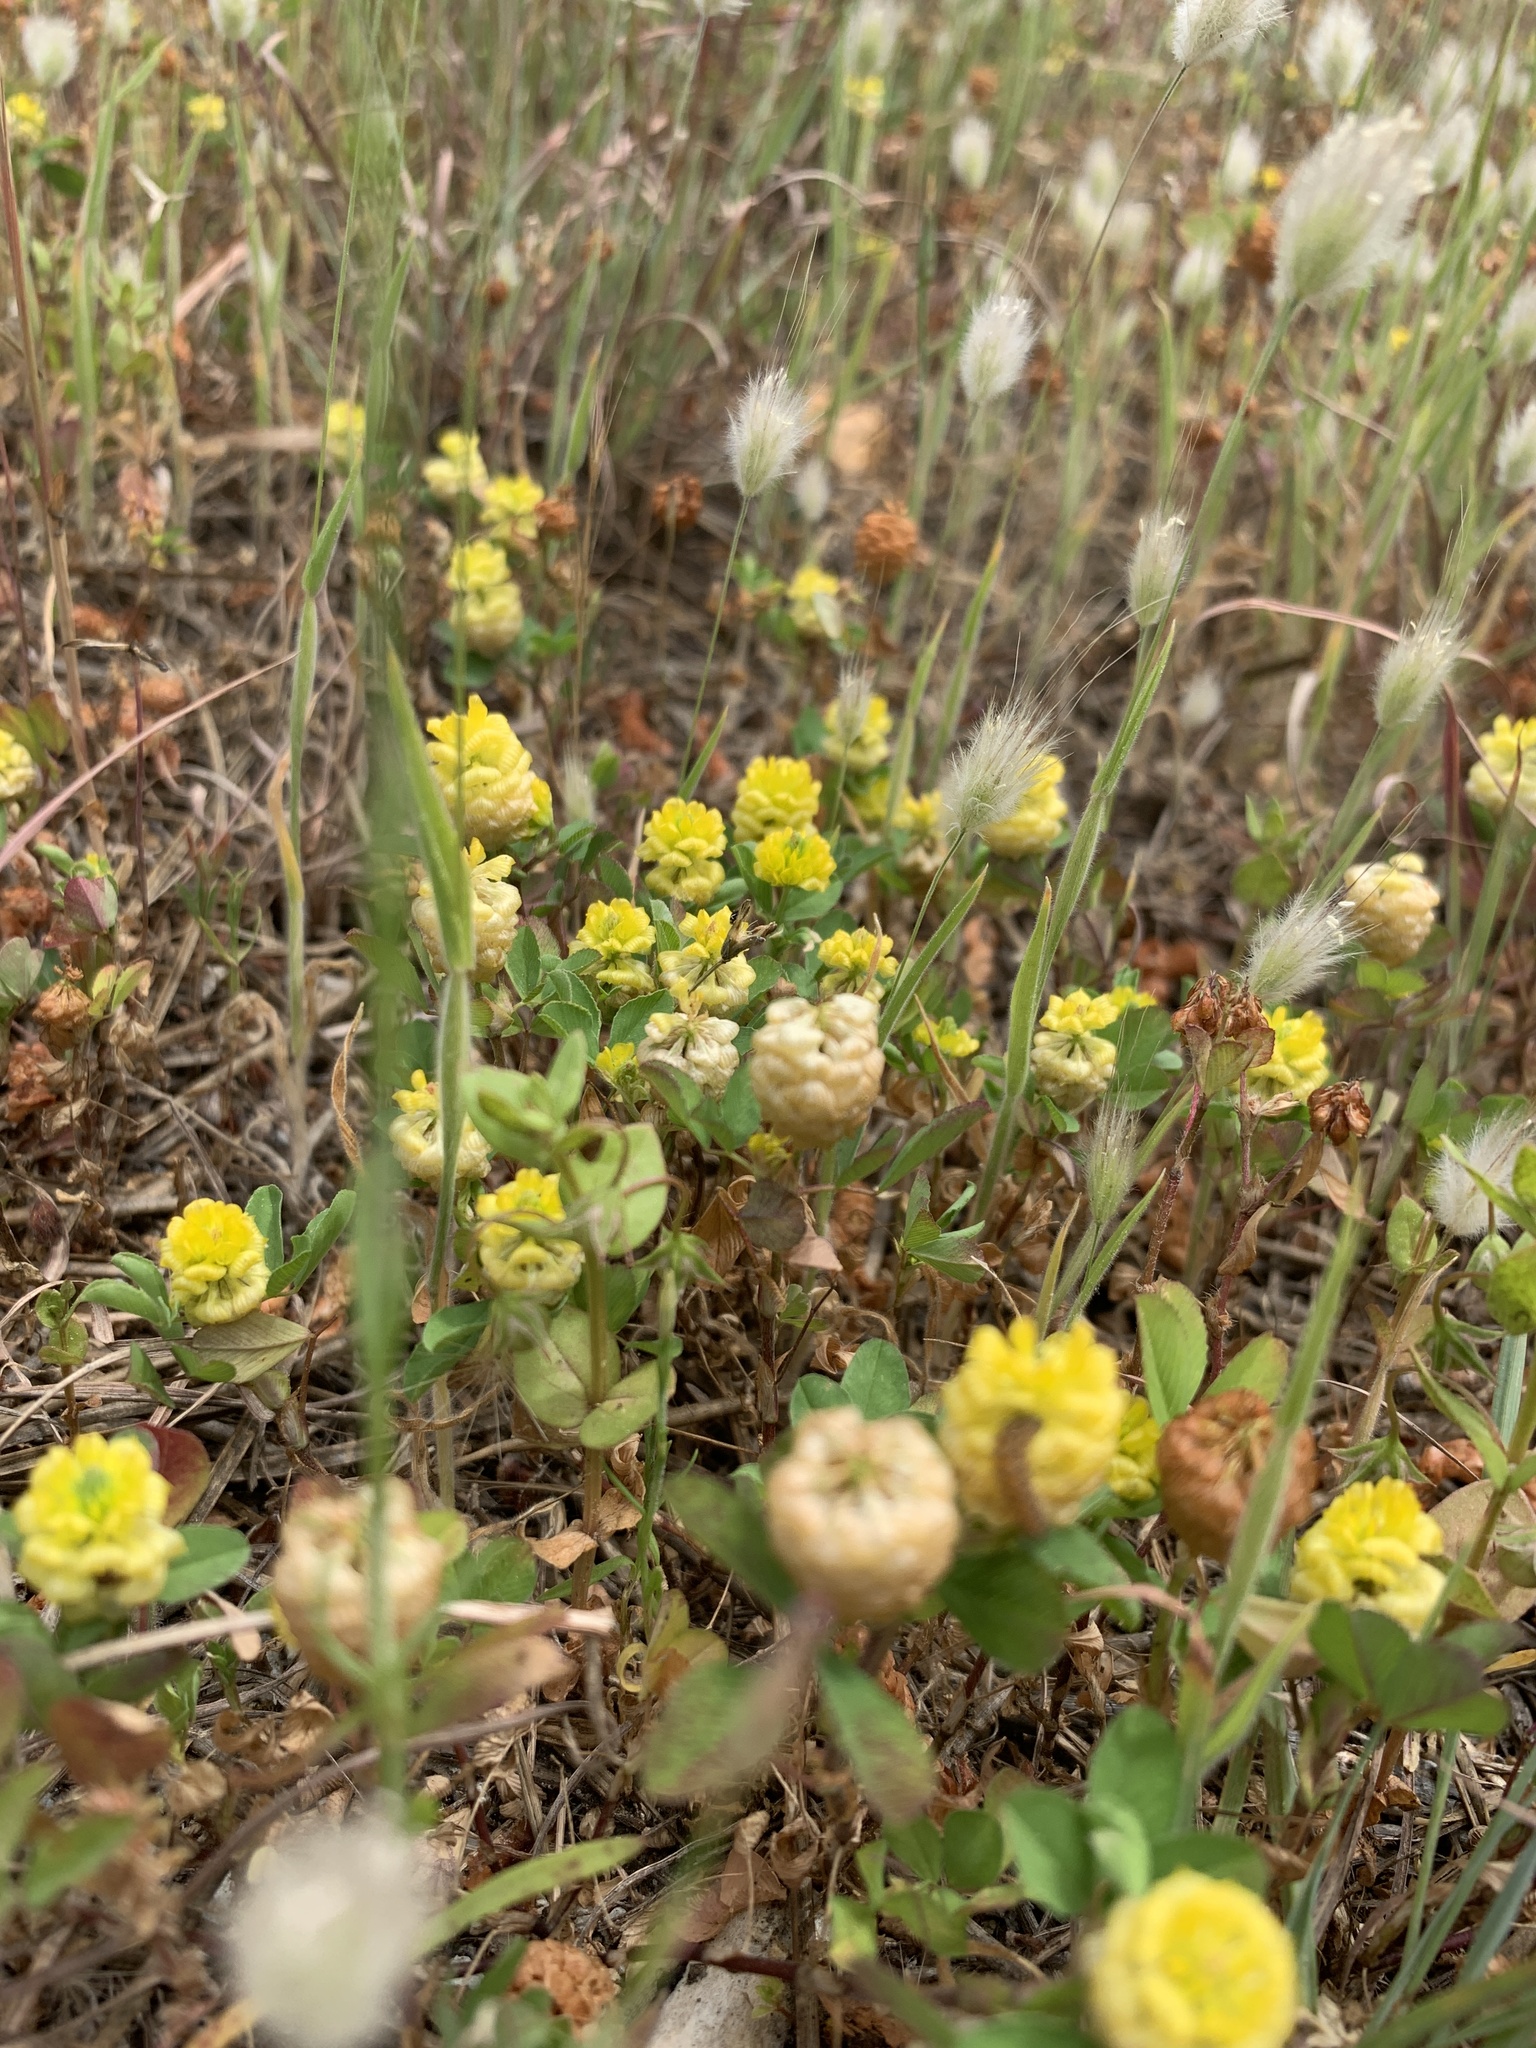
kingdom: Plantae
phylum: Tracheophyta
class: Magnoliopsida
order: Fabales
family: Fabaceae
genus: Trifolium
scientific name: Trifolium campestre
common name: Field clover
